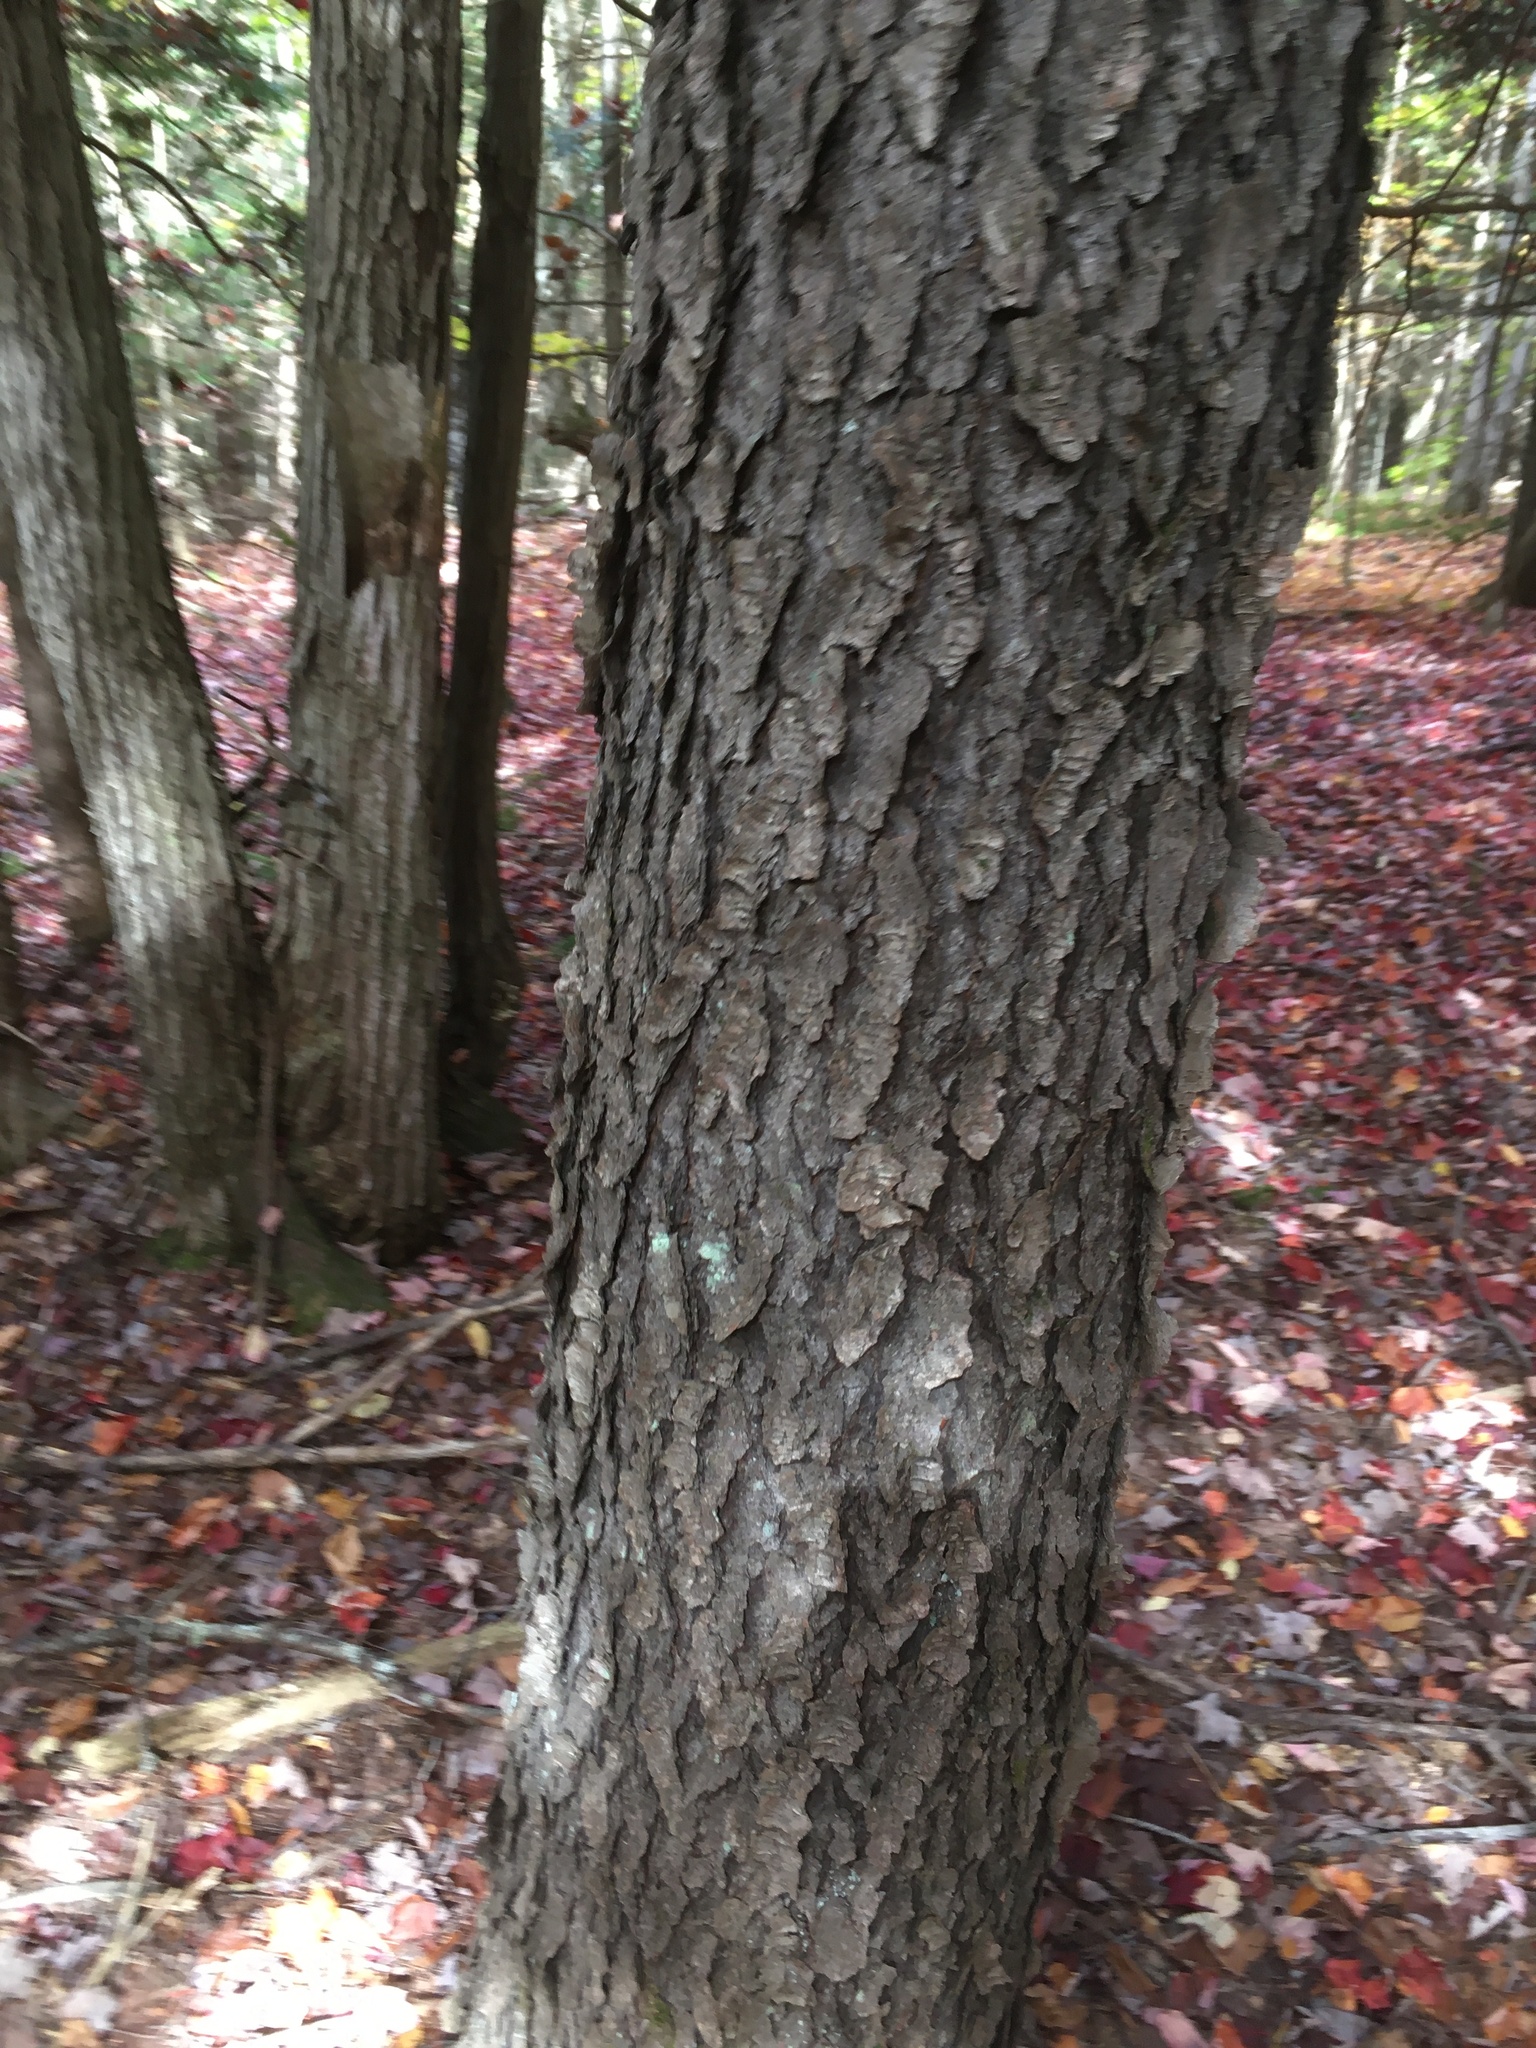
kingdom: Plantae
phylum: Tracheophyta
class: Magnoliopsida
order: Rosales
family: Rosaceae
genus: Prunus
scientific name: Prunus serotina
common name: Black cherry
